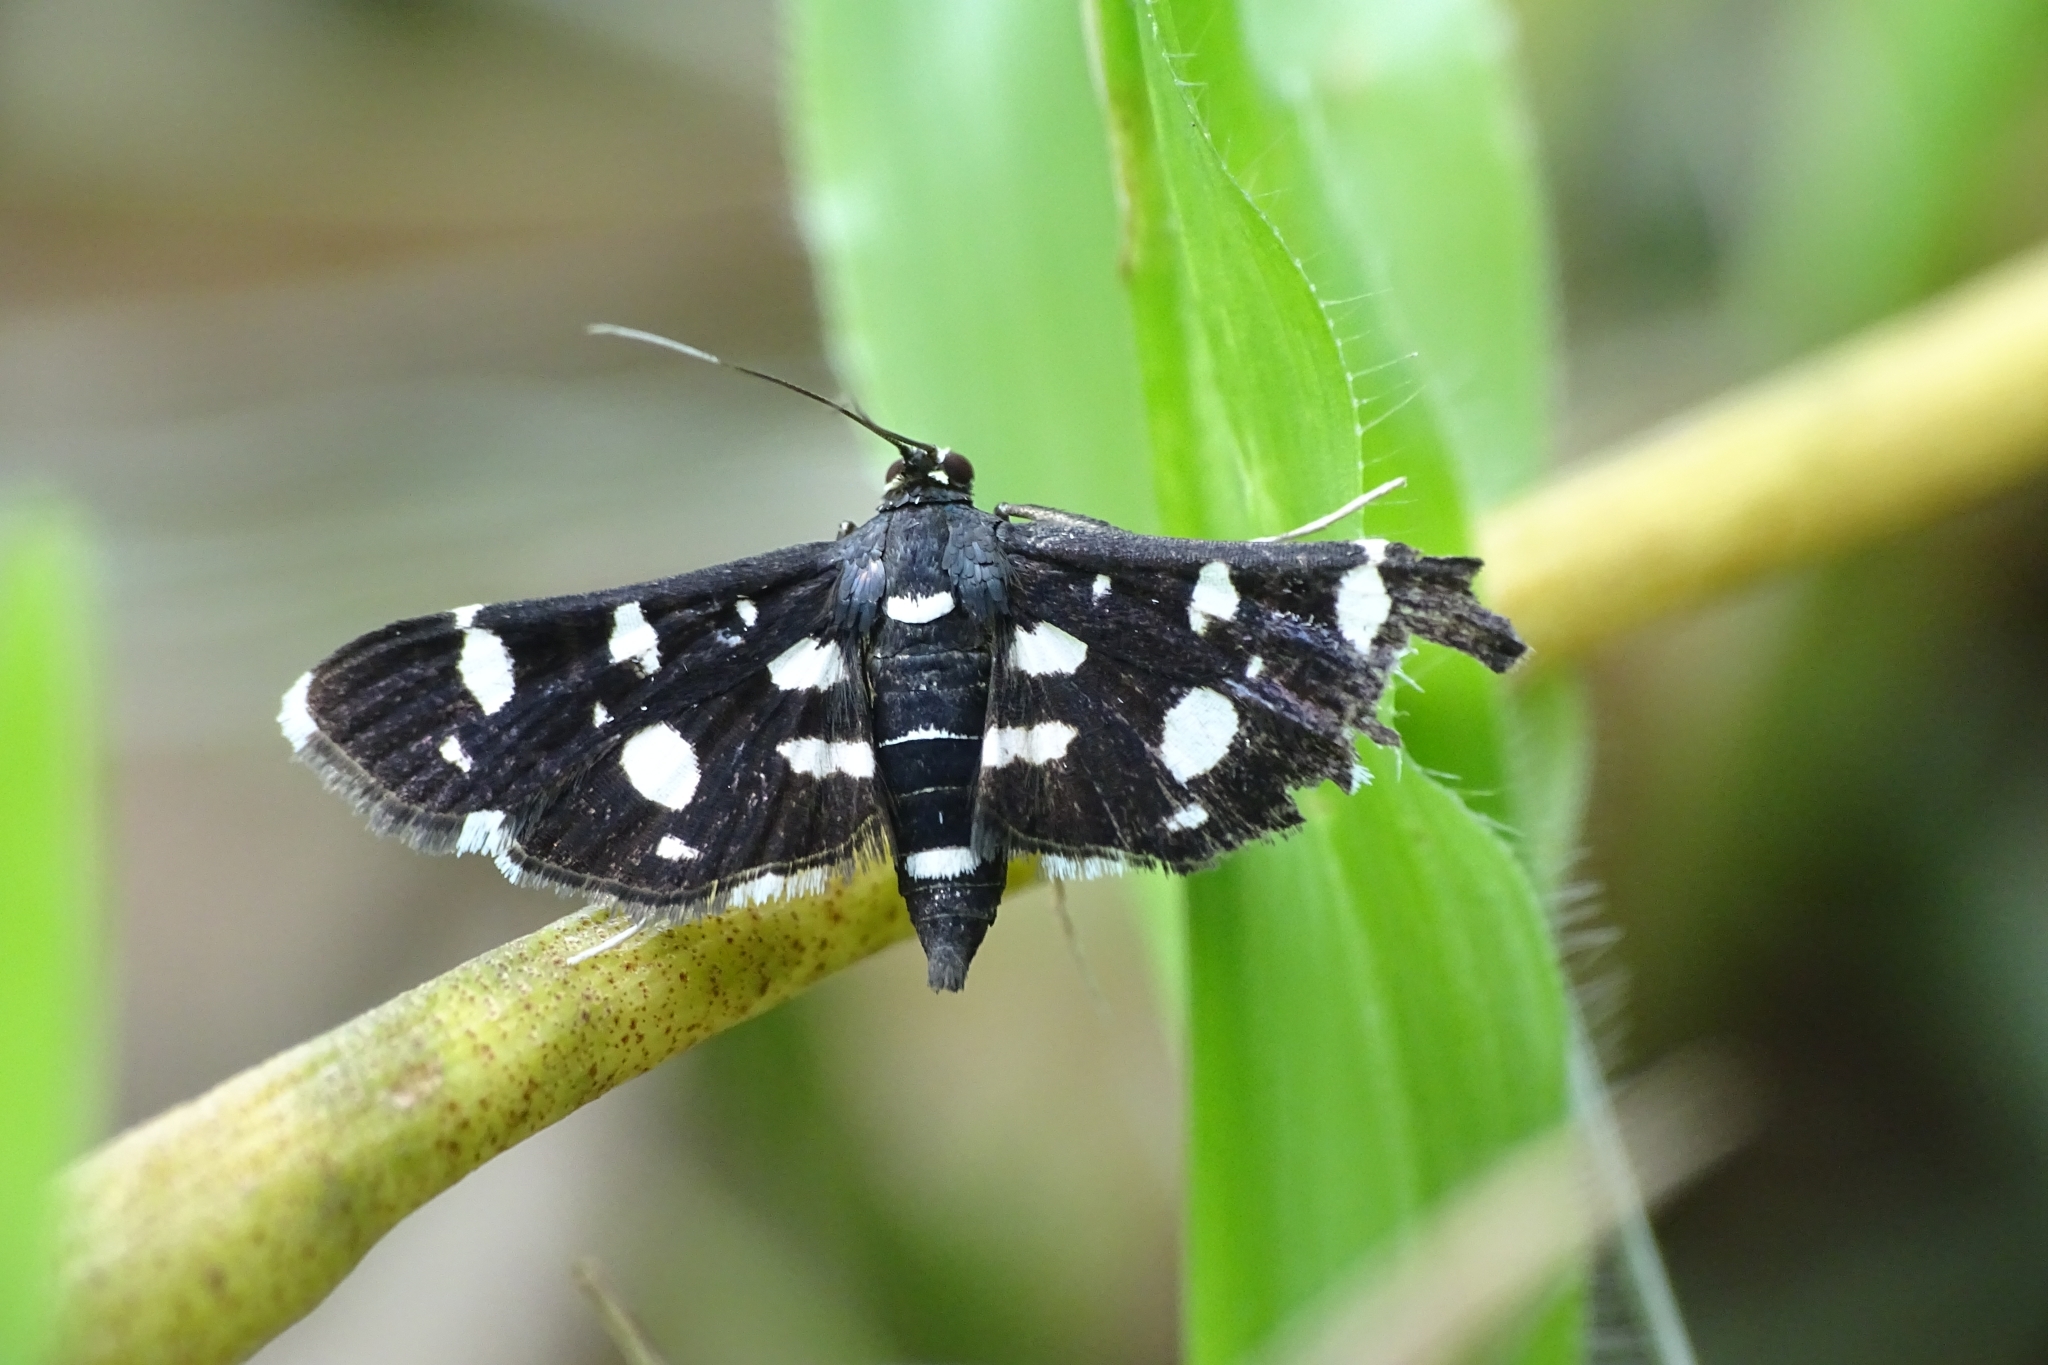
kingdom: Animalia
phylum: Arthropoda
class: Insecta
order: Lepidoptera
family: Crambidae
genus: Bocchoris
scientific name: Bocchoris inspersalis
